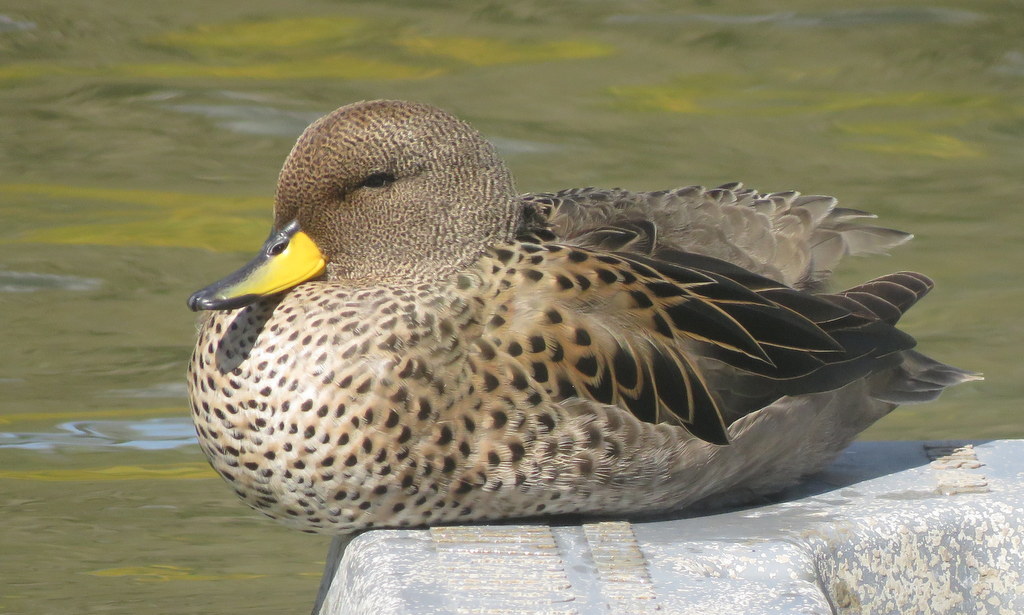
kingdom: Animalia
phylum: Chordata
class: Aves
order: Anseriformes
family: Anatidae
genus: Anas
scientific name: Anas flavirostris
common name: Yellow-billed teal
